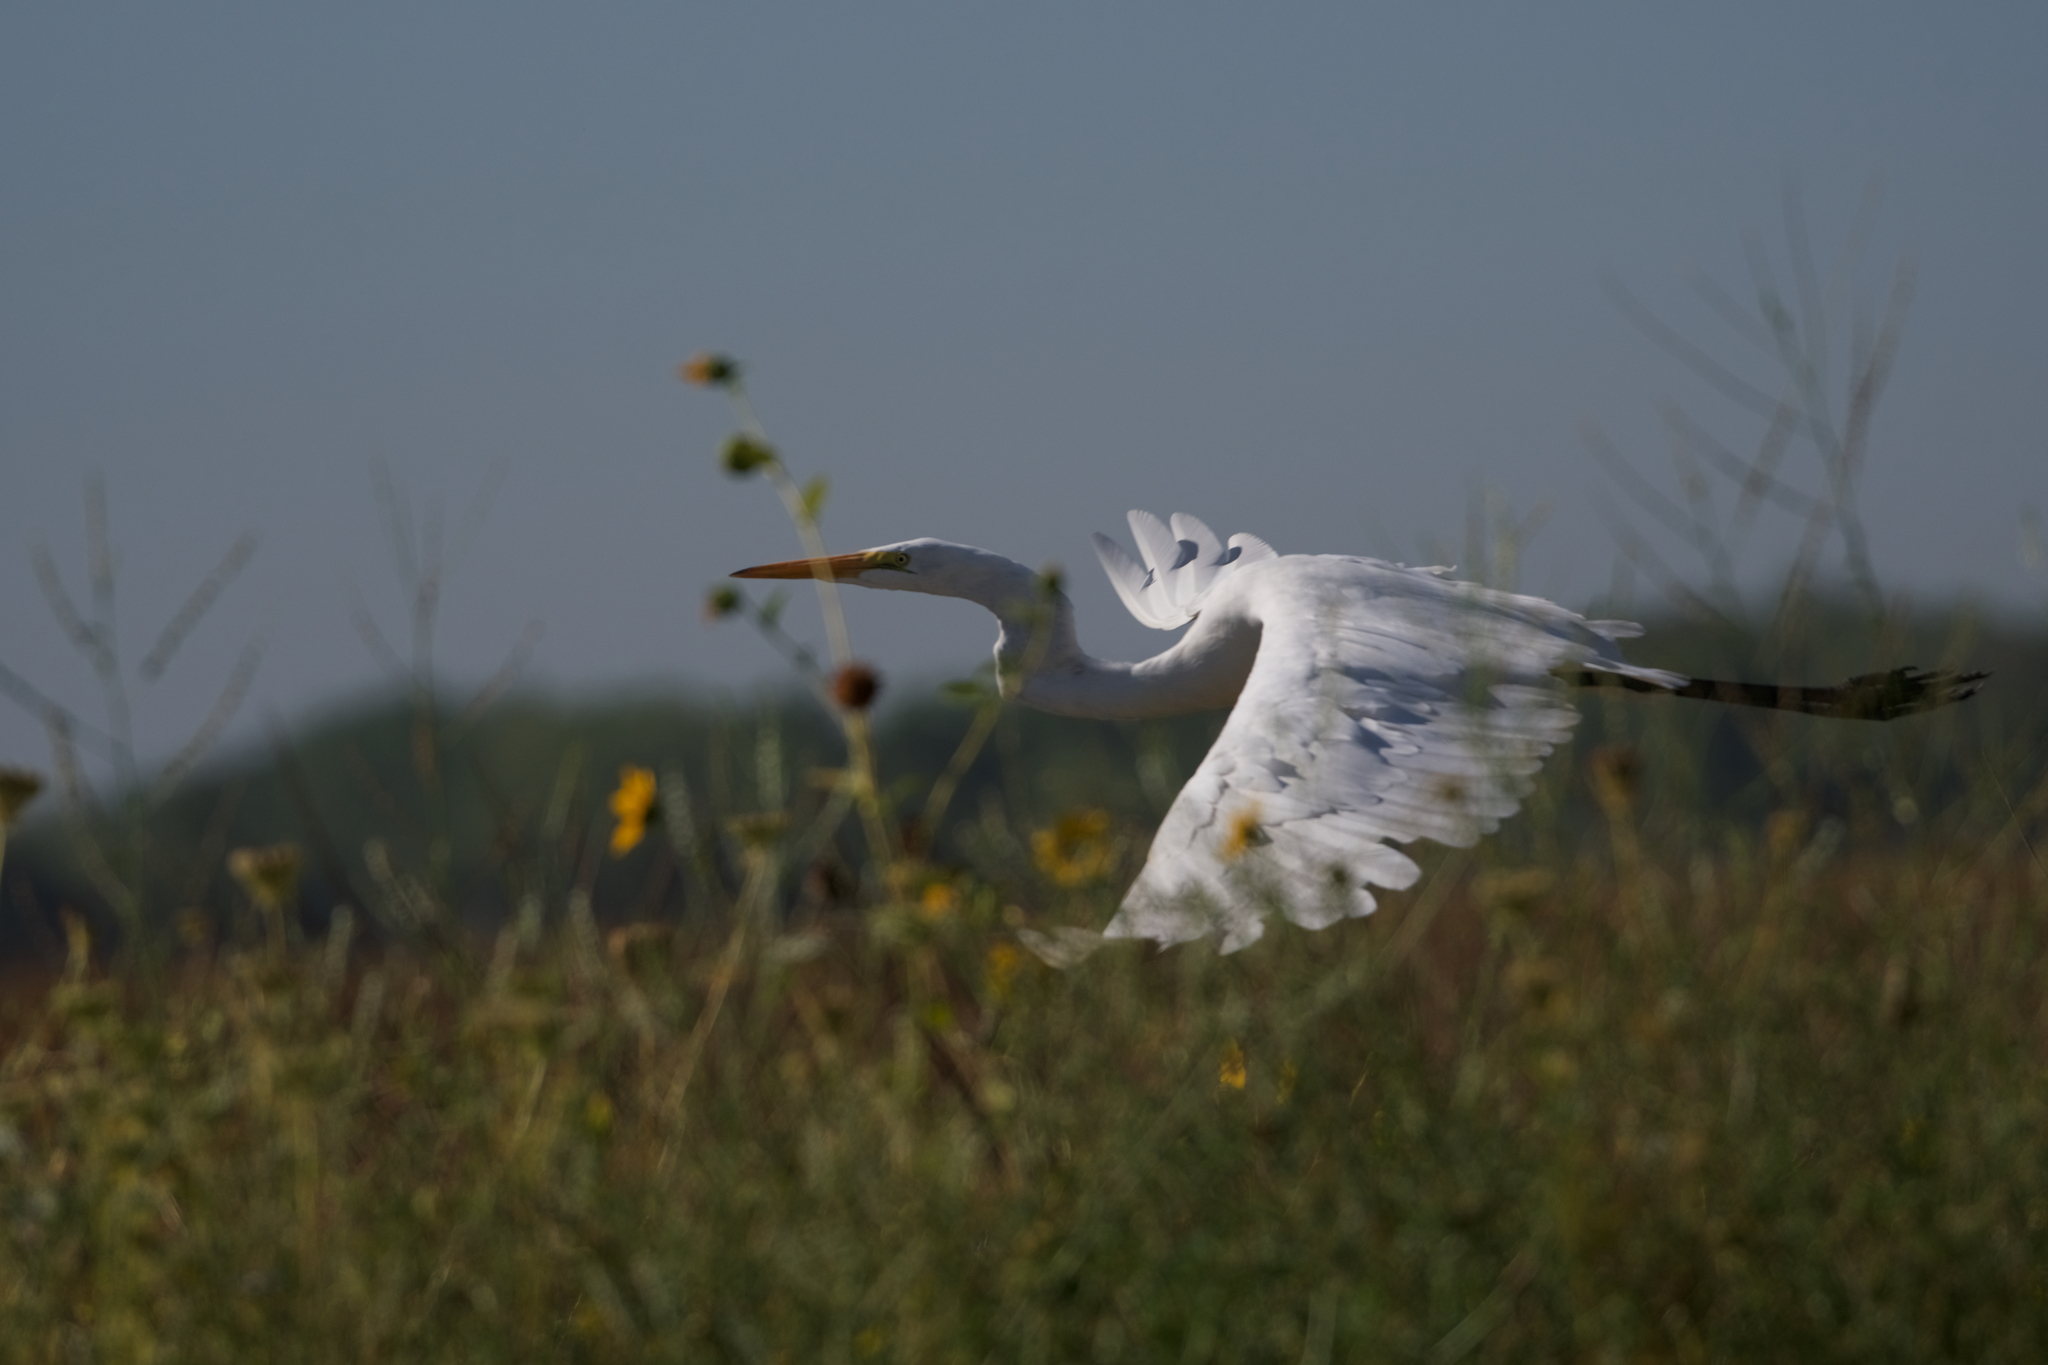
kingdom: Animalia
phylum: Chordata
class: Aves
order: Pelecaniformes
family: Ardeidae
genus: Ardea
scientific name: Ardea alba
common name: Great egret
